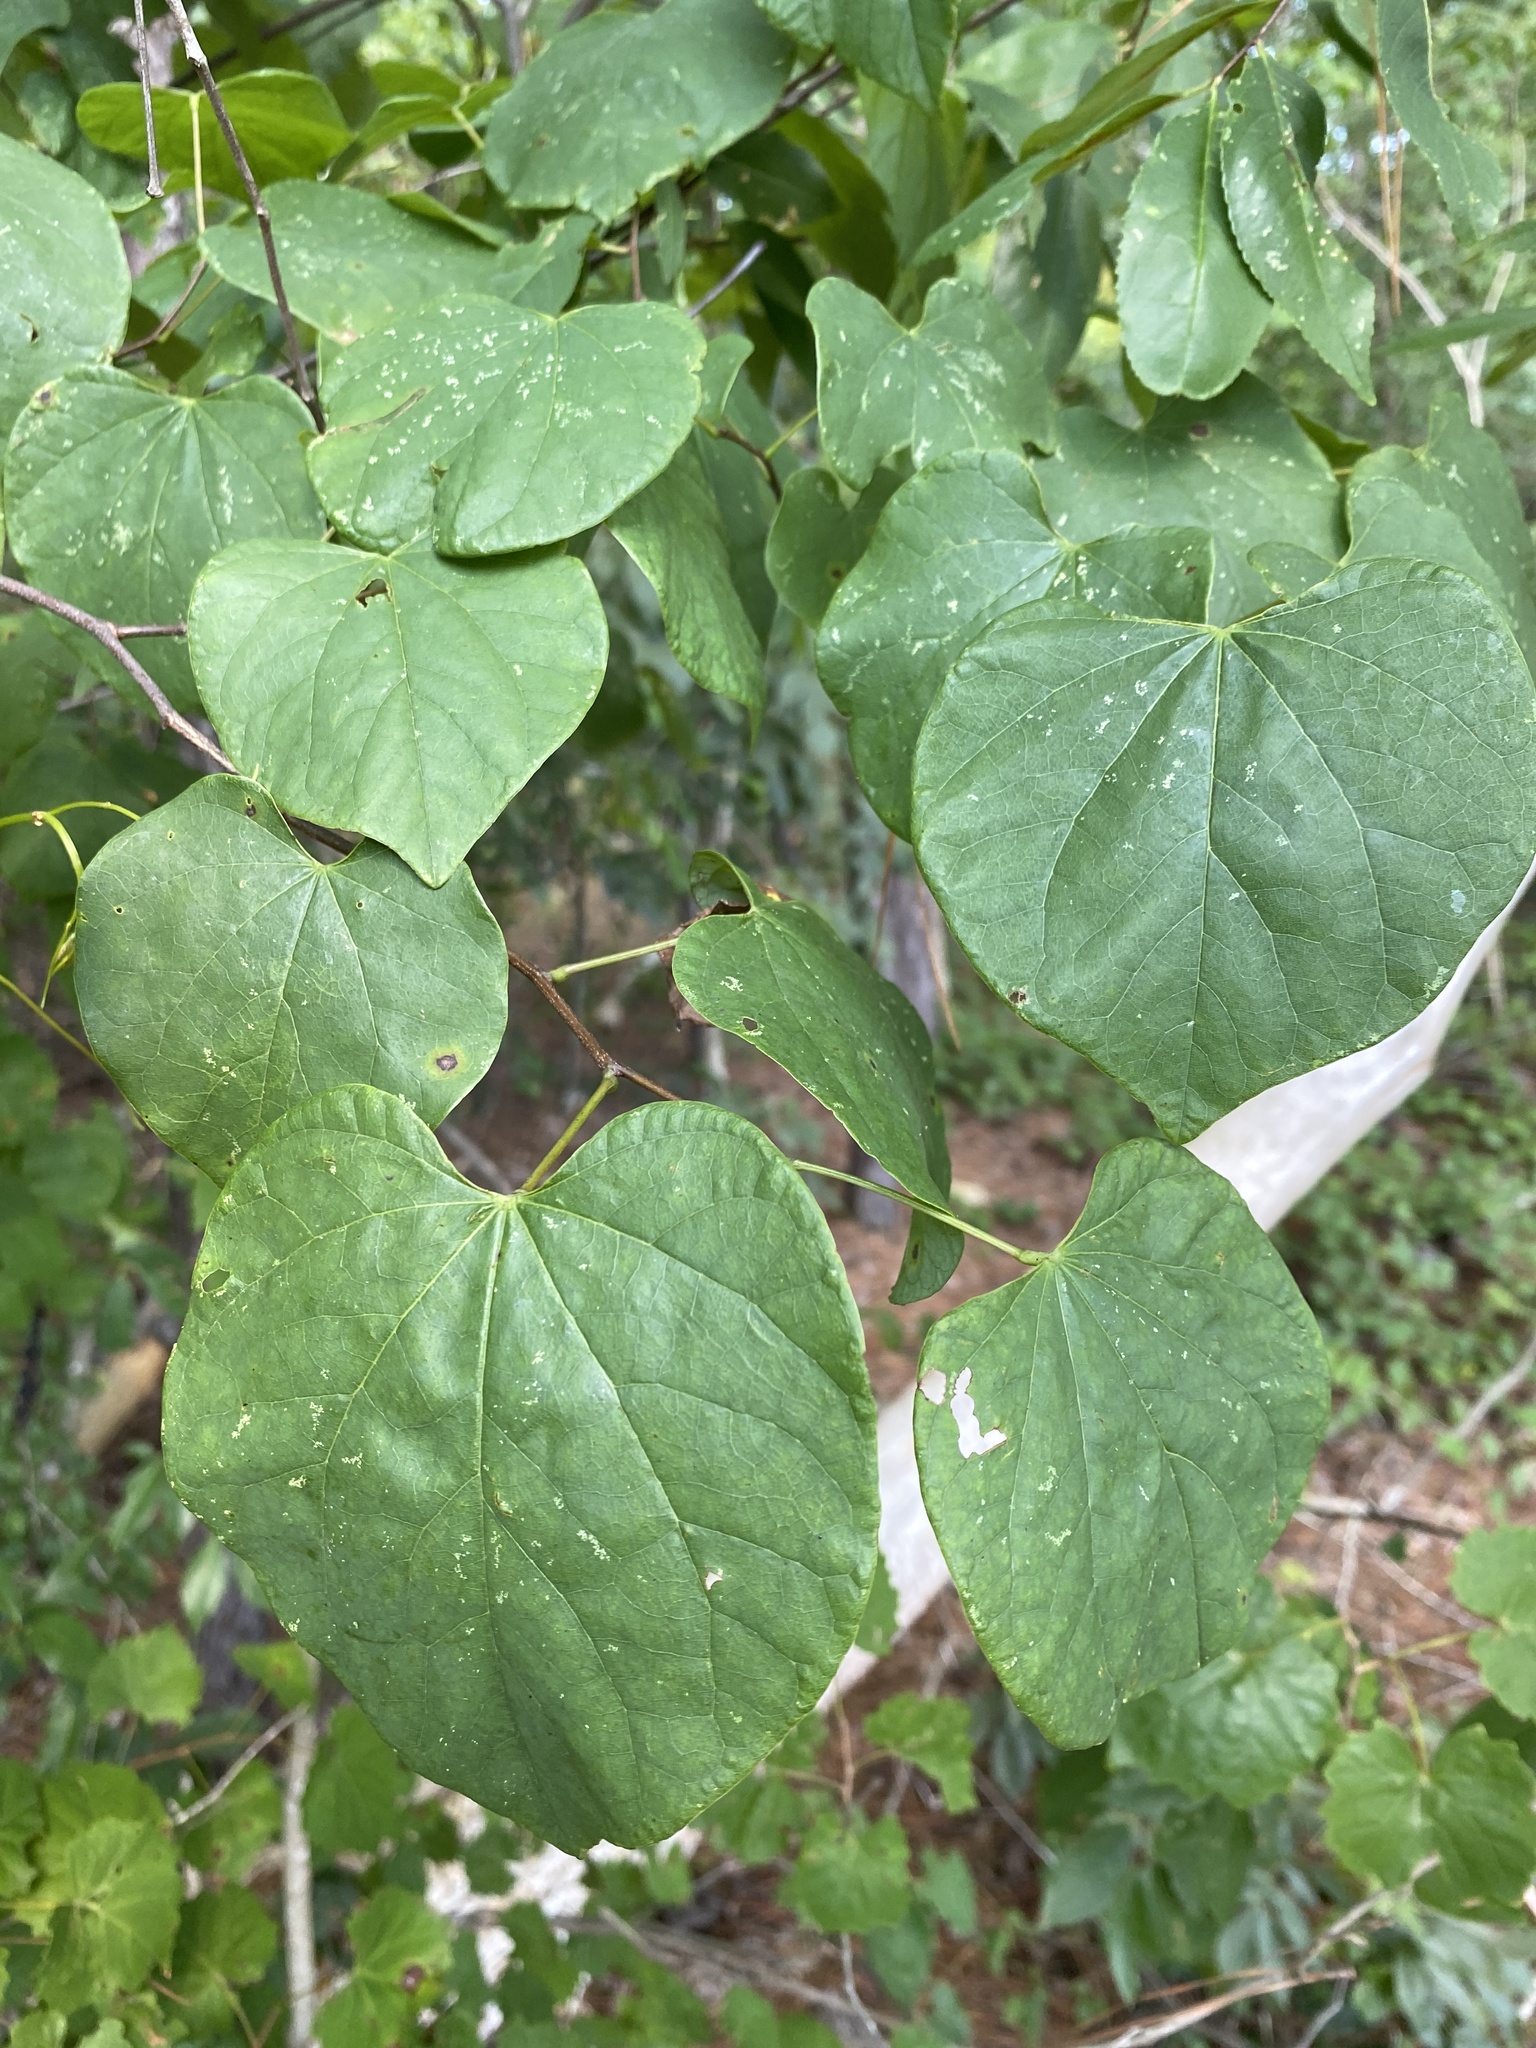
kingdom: Plantae
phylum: Tracheophyta
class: Magnoliopsida
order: Fabales
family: Fabaceae
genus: Cercis
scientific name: Cercis canadensis
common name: Eastern redbud
